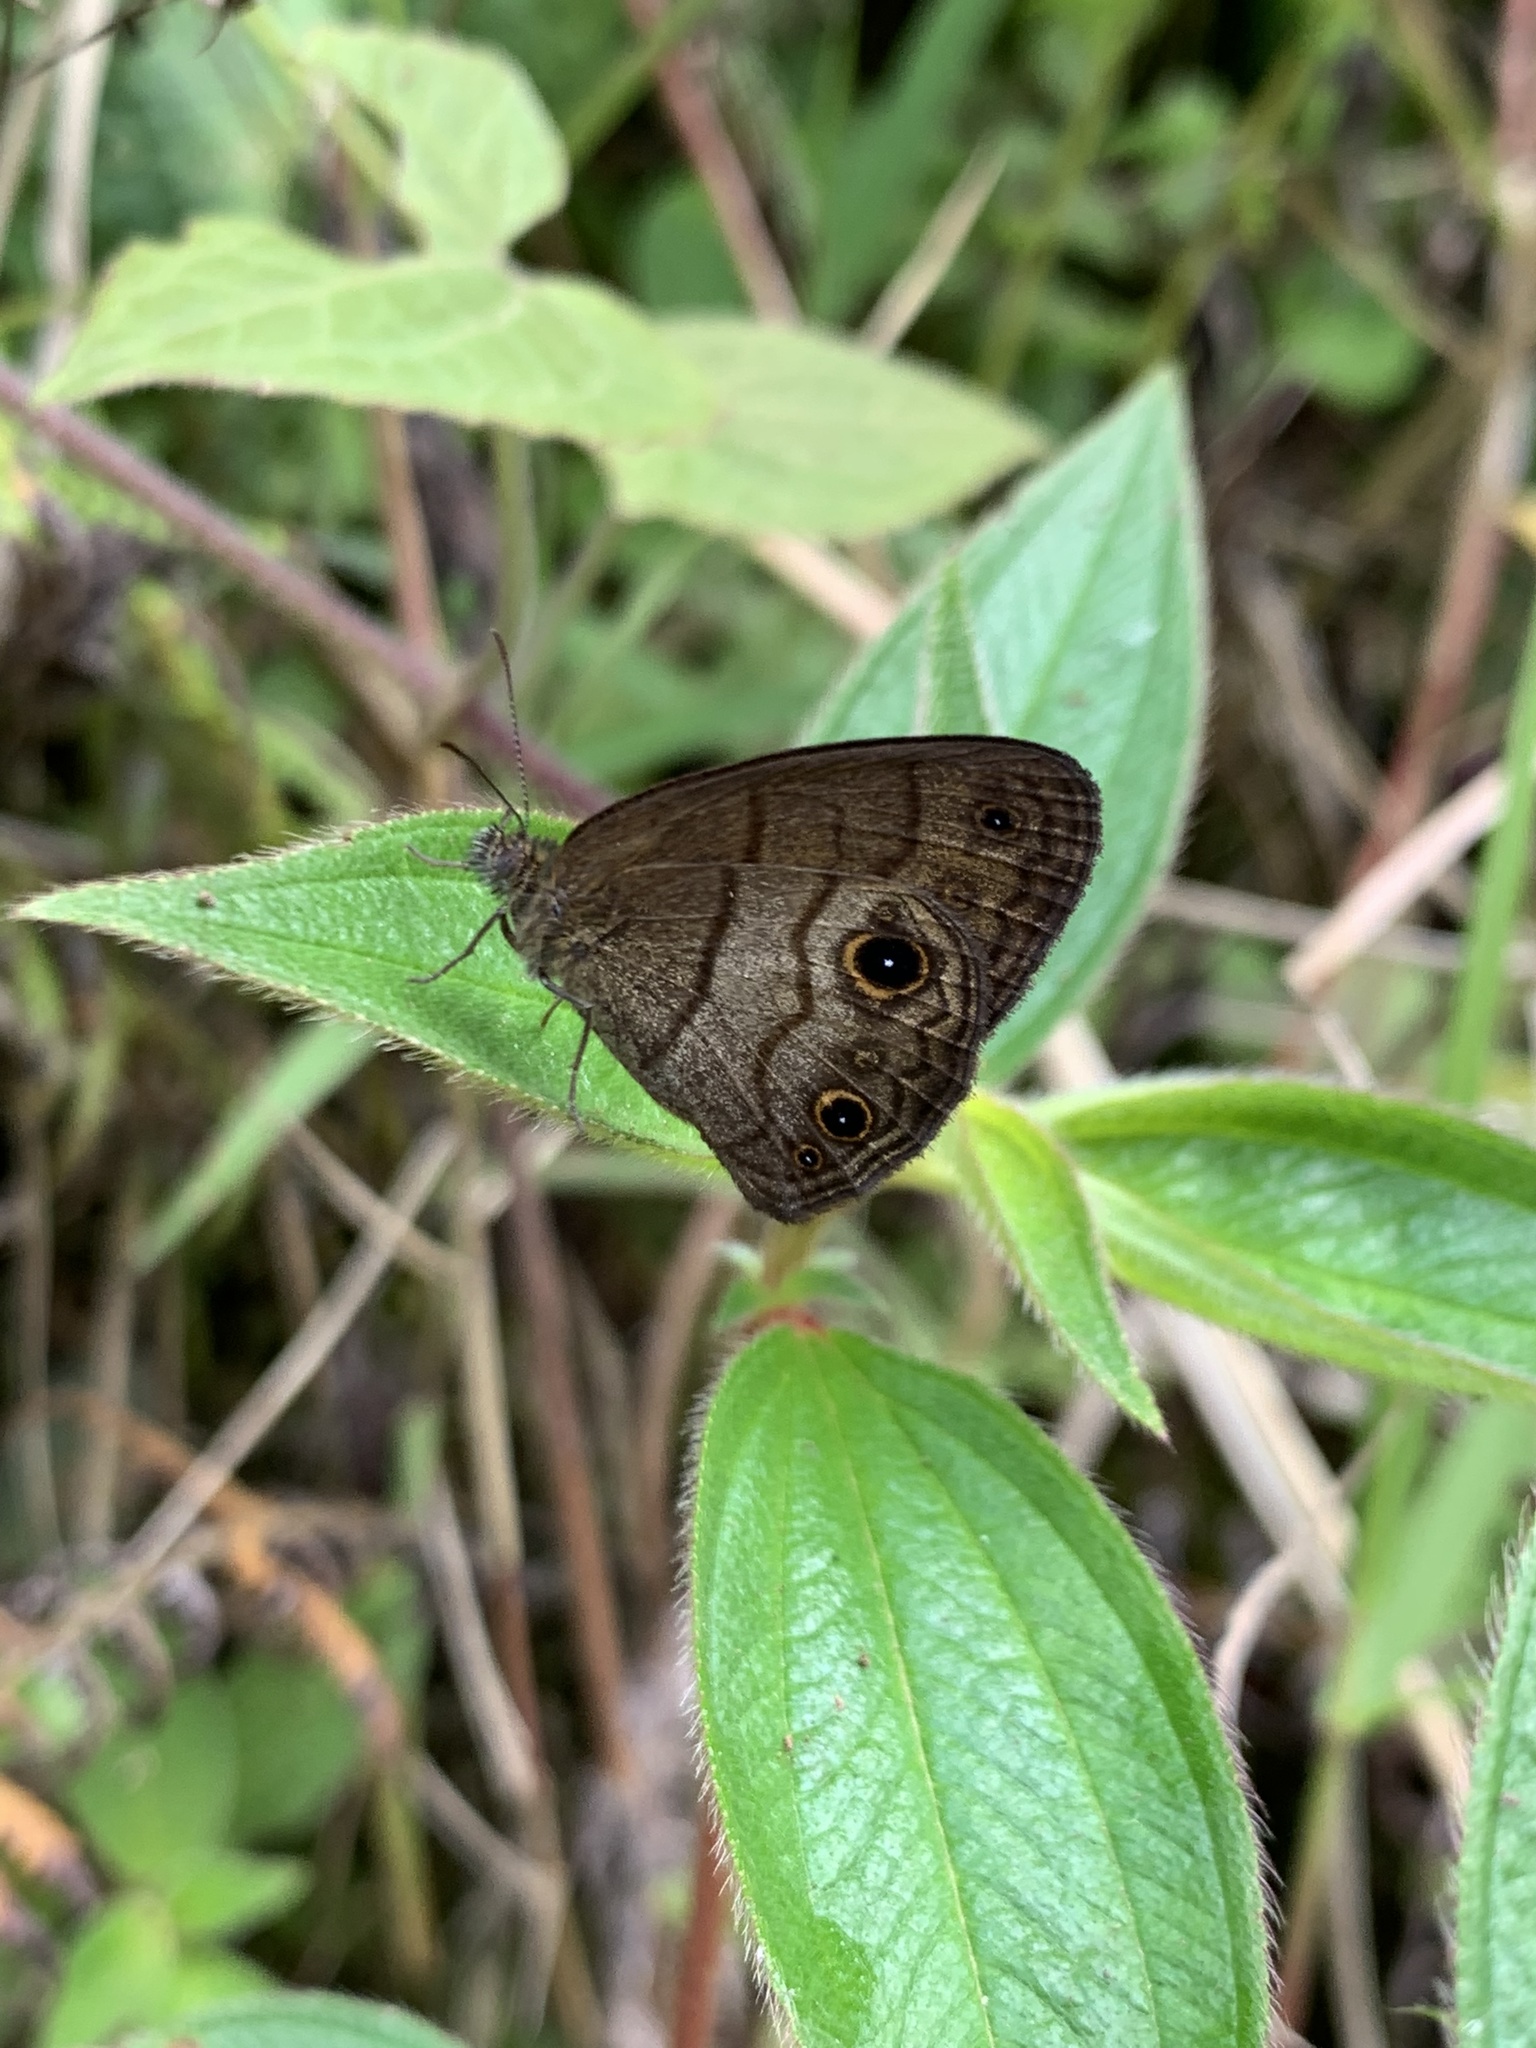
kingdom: Animalia
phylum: Arthropoda
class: Insecta
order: Lepidoptera
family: Nymphalidae
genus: Hermeuptychia
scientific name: Hermeuptychia harmonia
